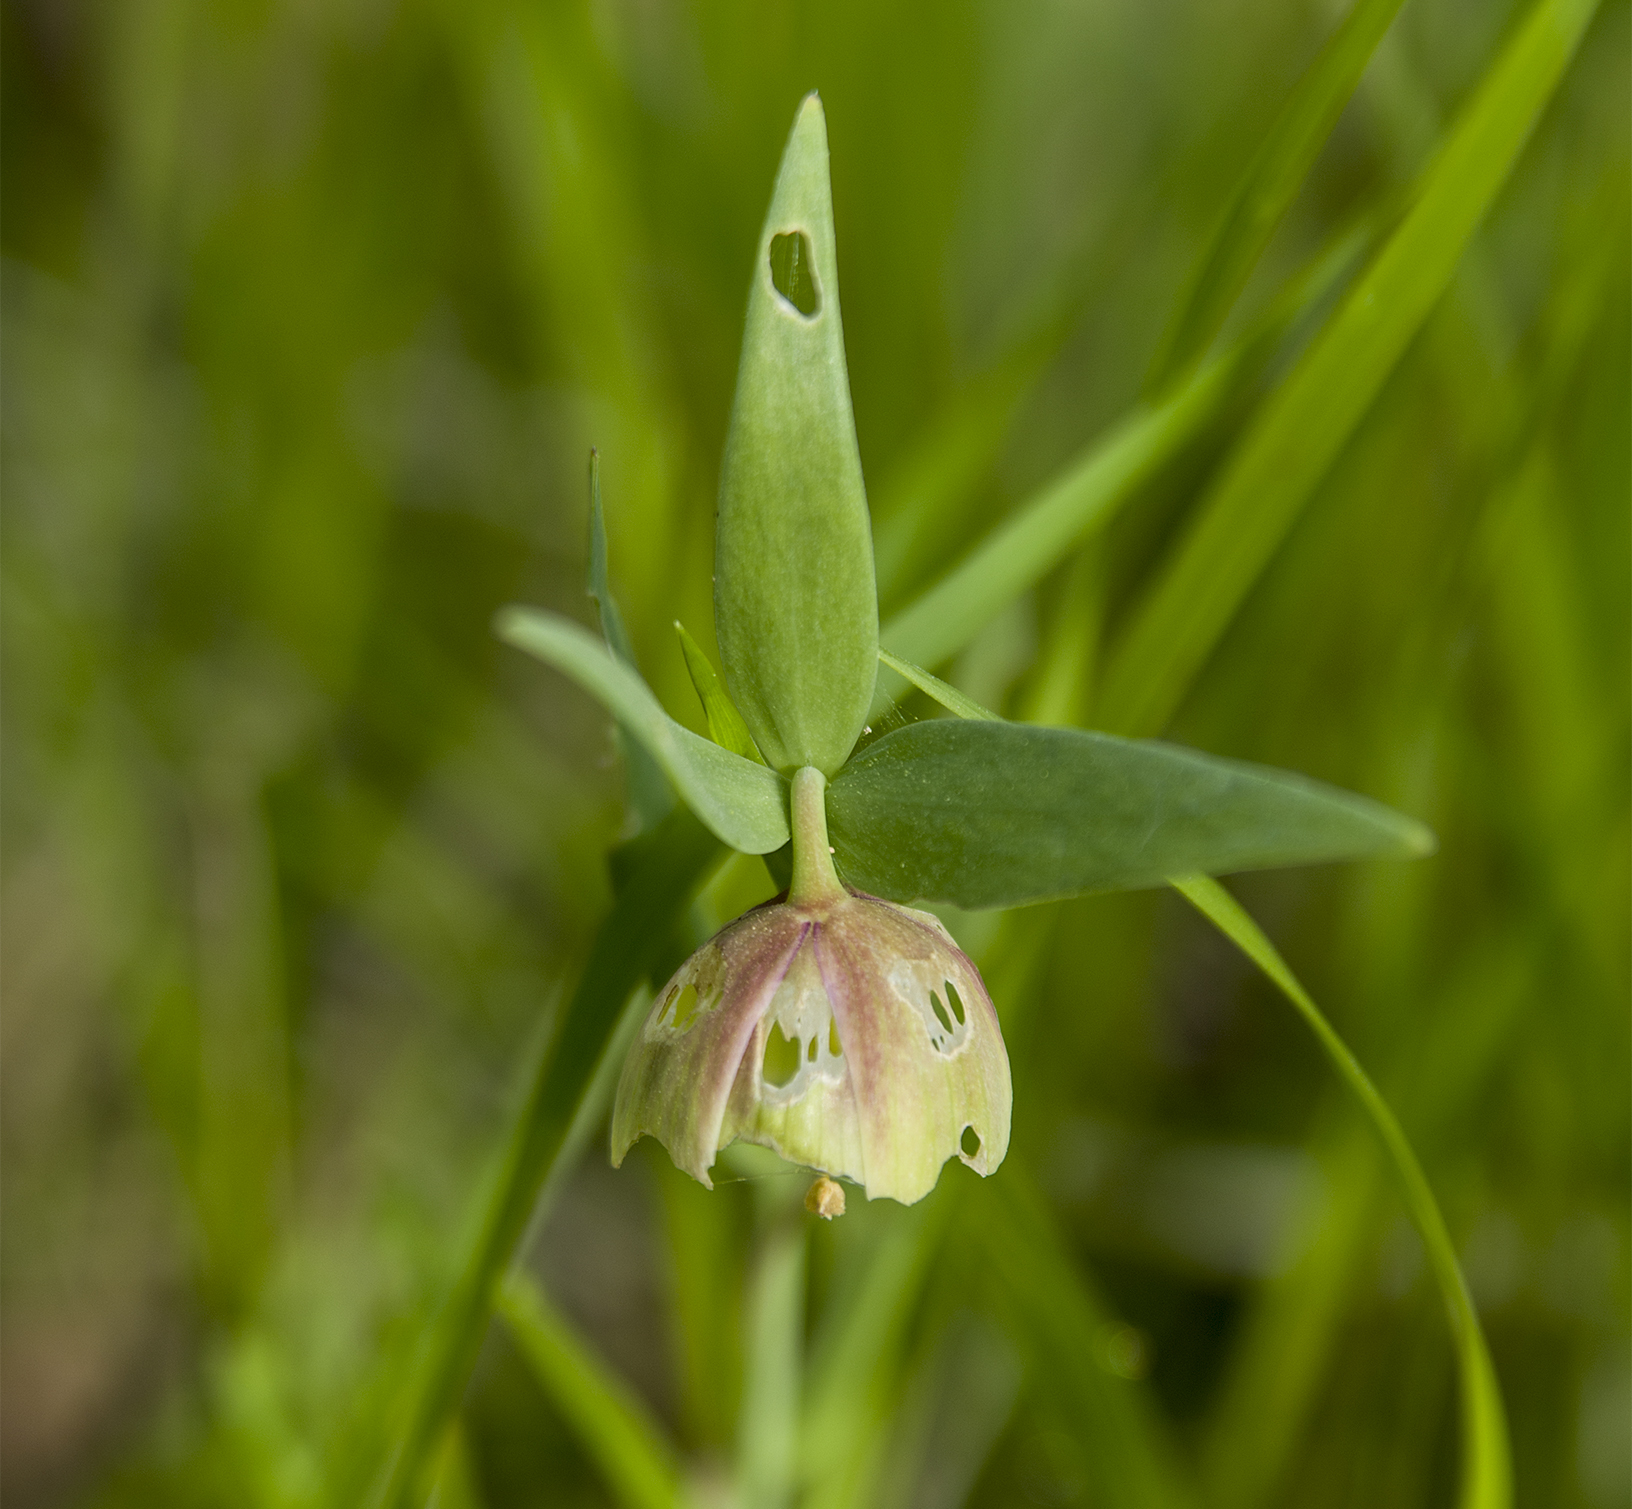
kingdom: Plantae
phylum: Tracheophyta
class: Liliopsida
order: Liliales
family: Liliaceae
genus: Fritillaria
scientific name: Fritillaria pontica
